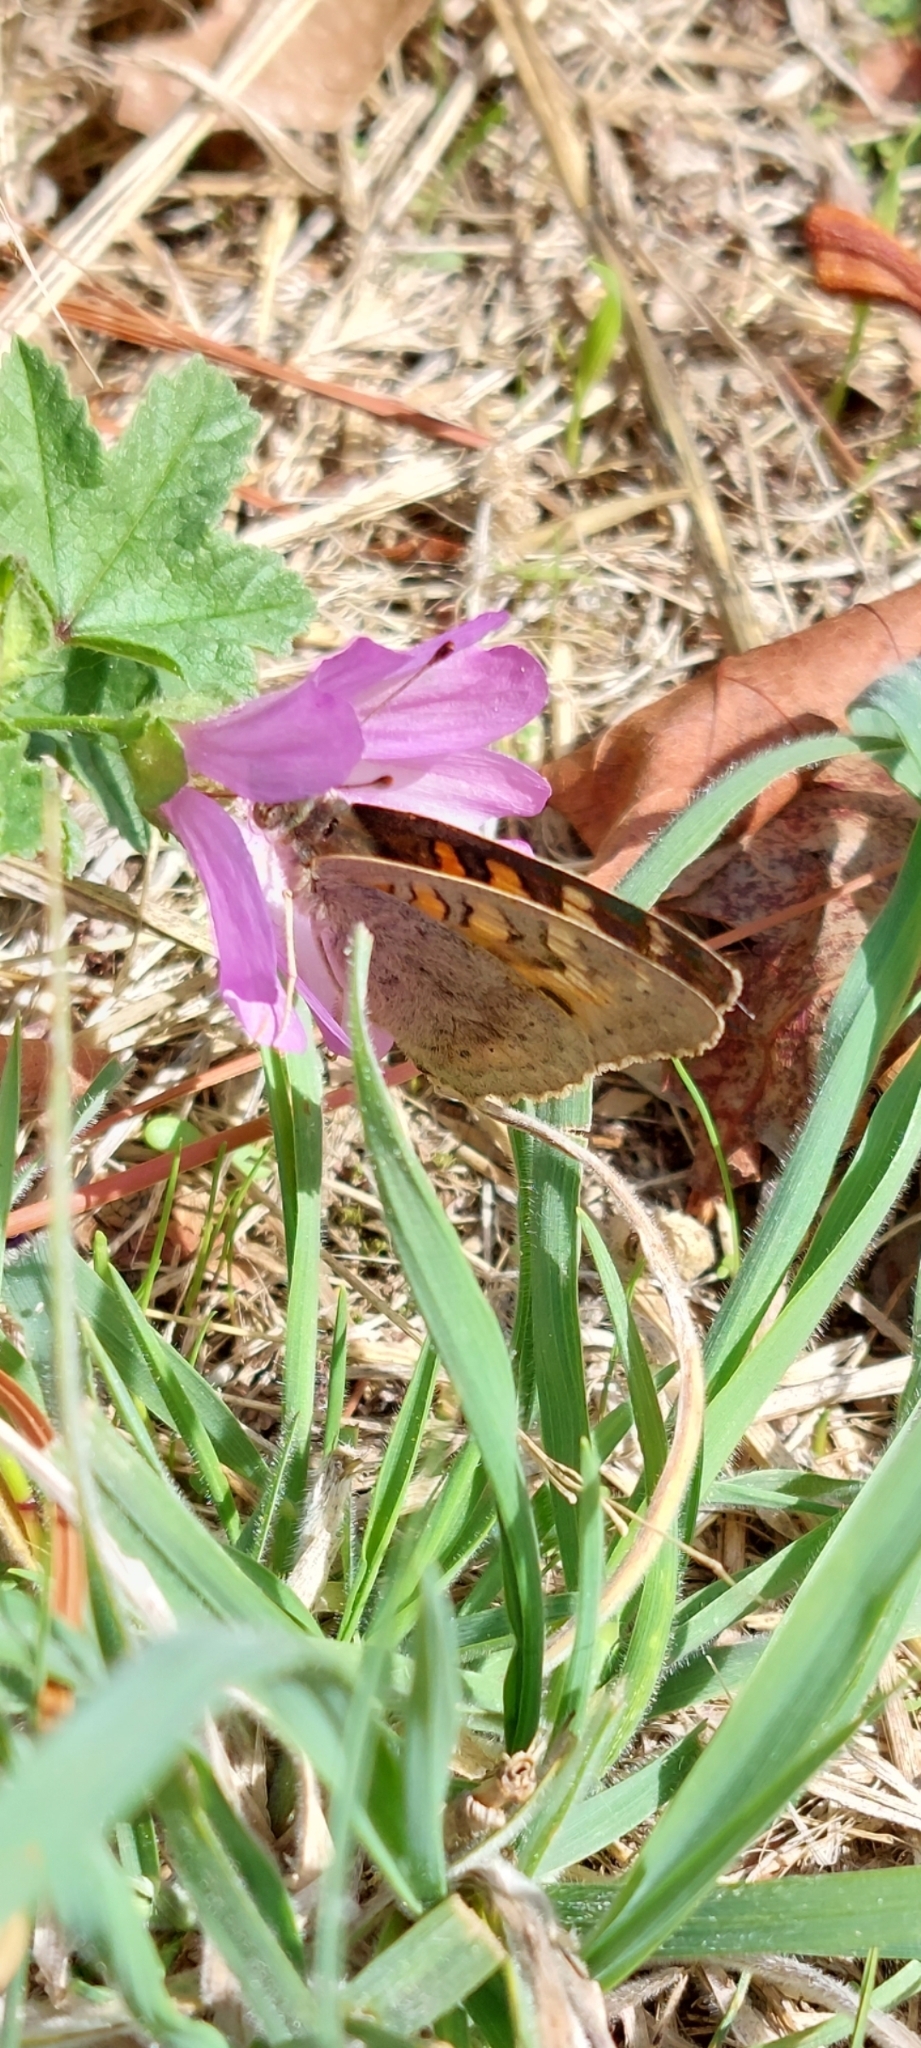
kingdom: Animalia
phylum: Arthropoda
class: Insecta
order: Lepidoptera
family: Nymphalidae
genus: Junonia
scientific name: Junonia villida
